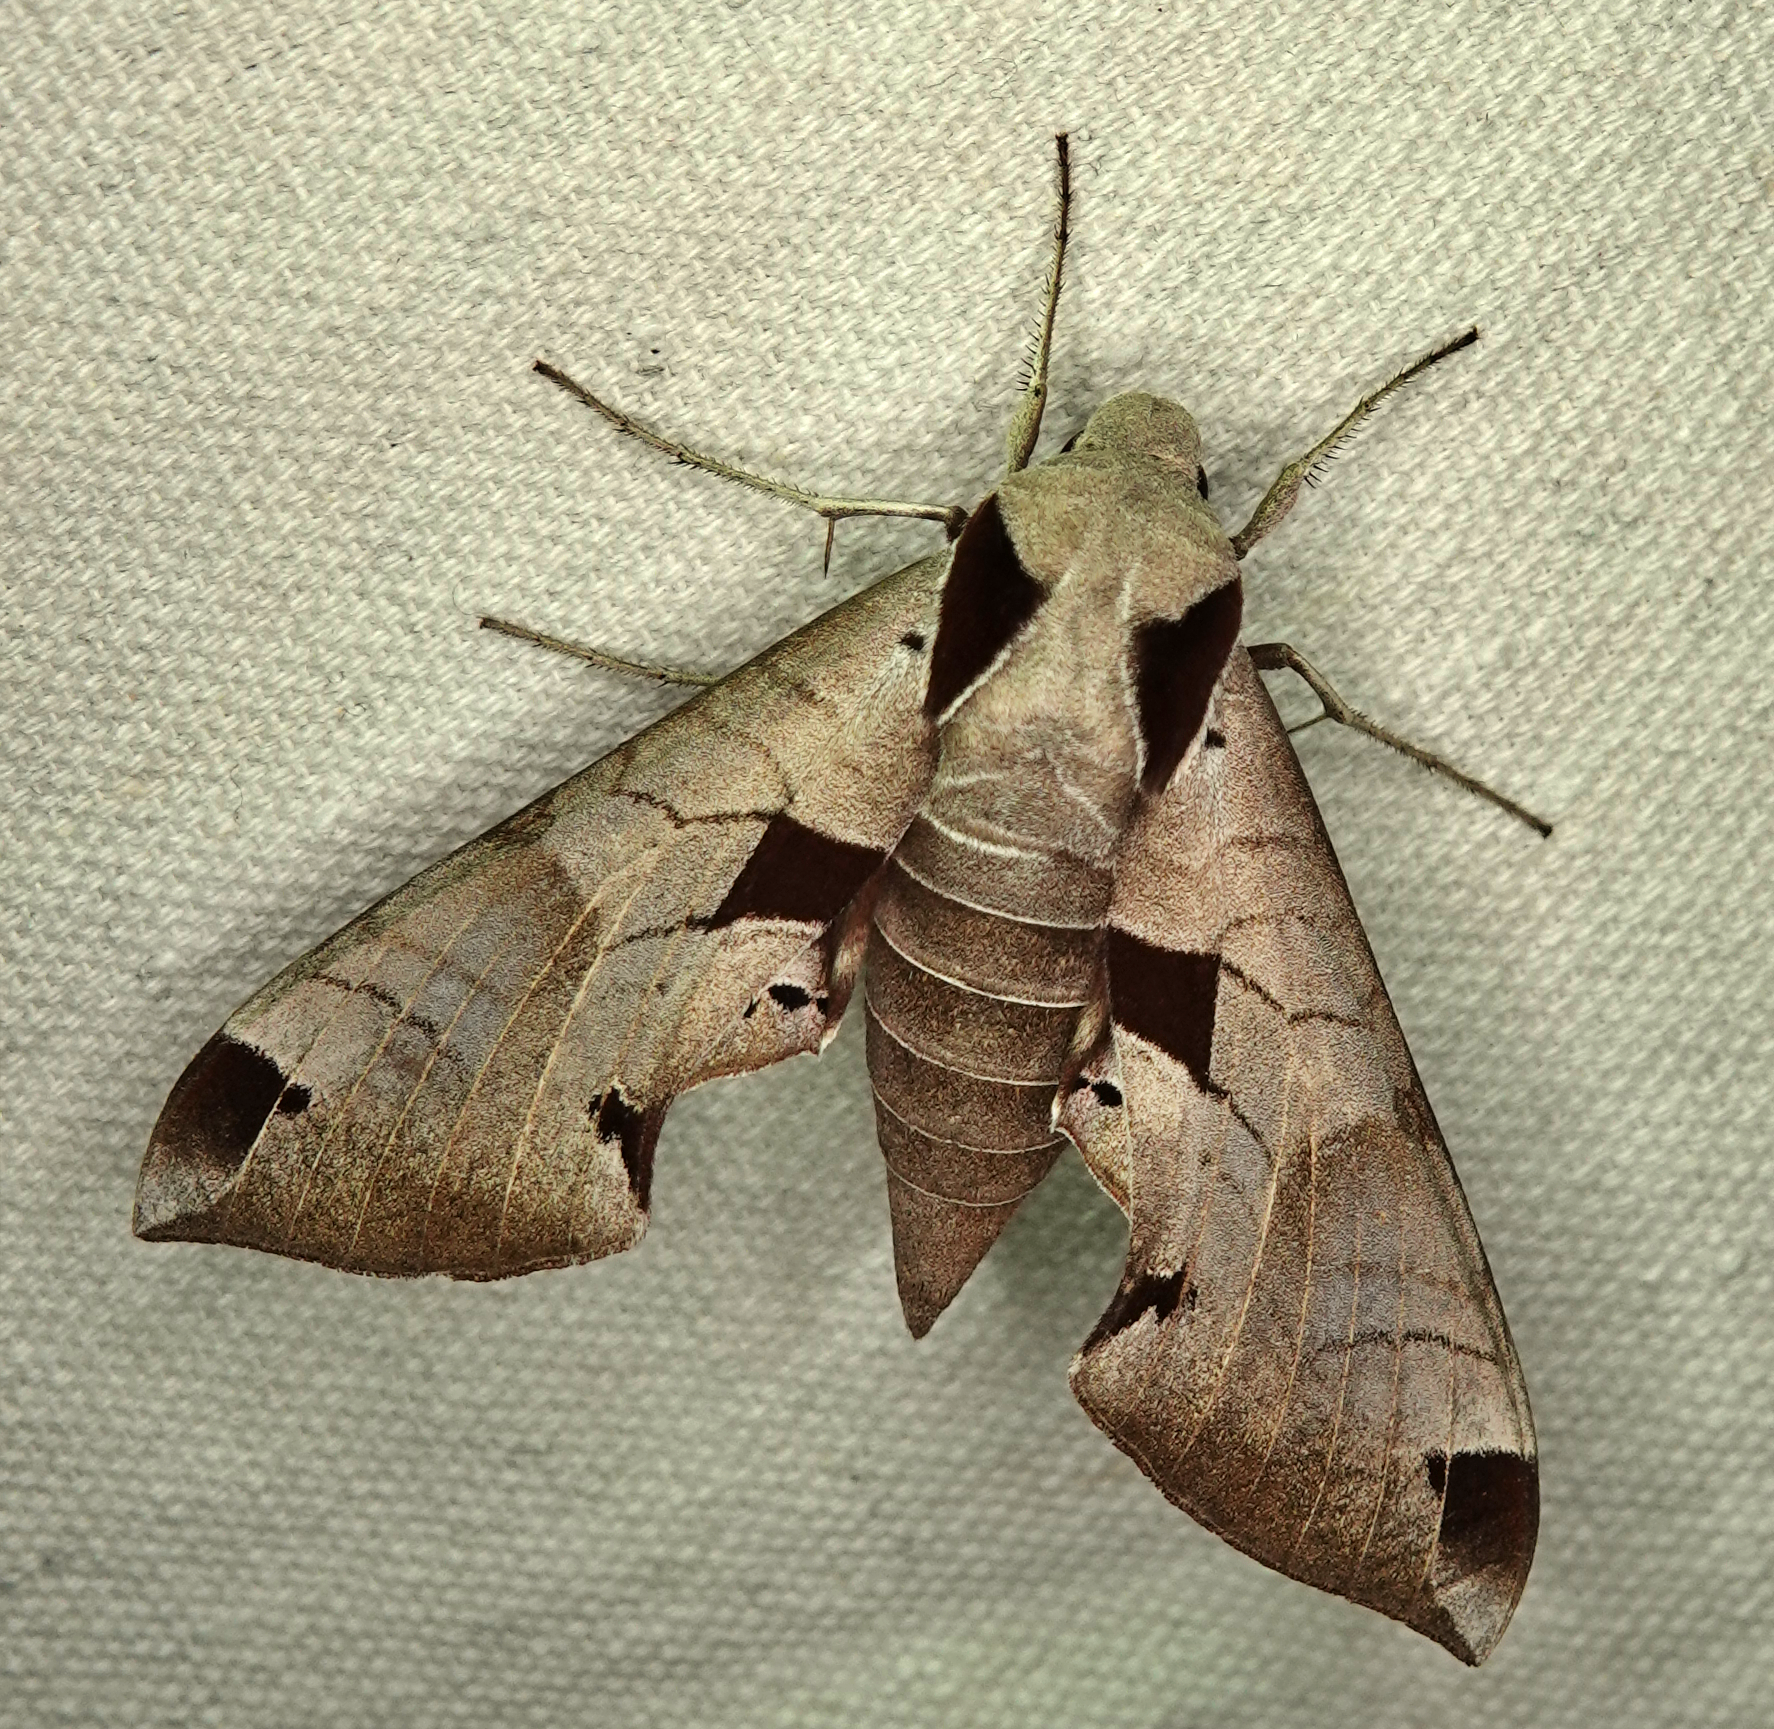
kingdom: Animalia
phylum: Arthropoda
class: Insecta
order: Lepidoptera
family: Sphingidae
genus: Eumorpha
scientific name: Eumorpha achemon
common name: Achemon sphinx
